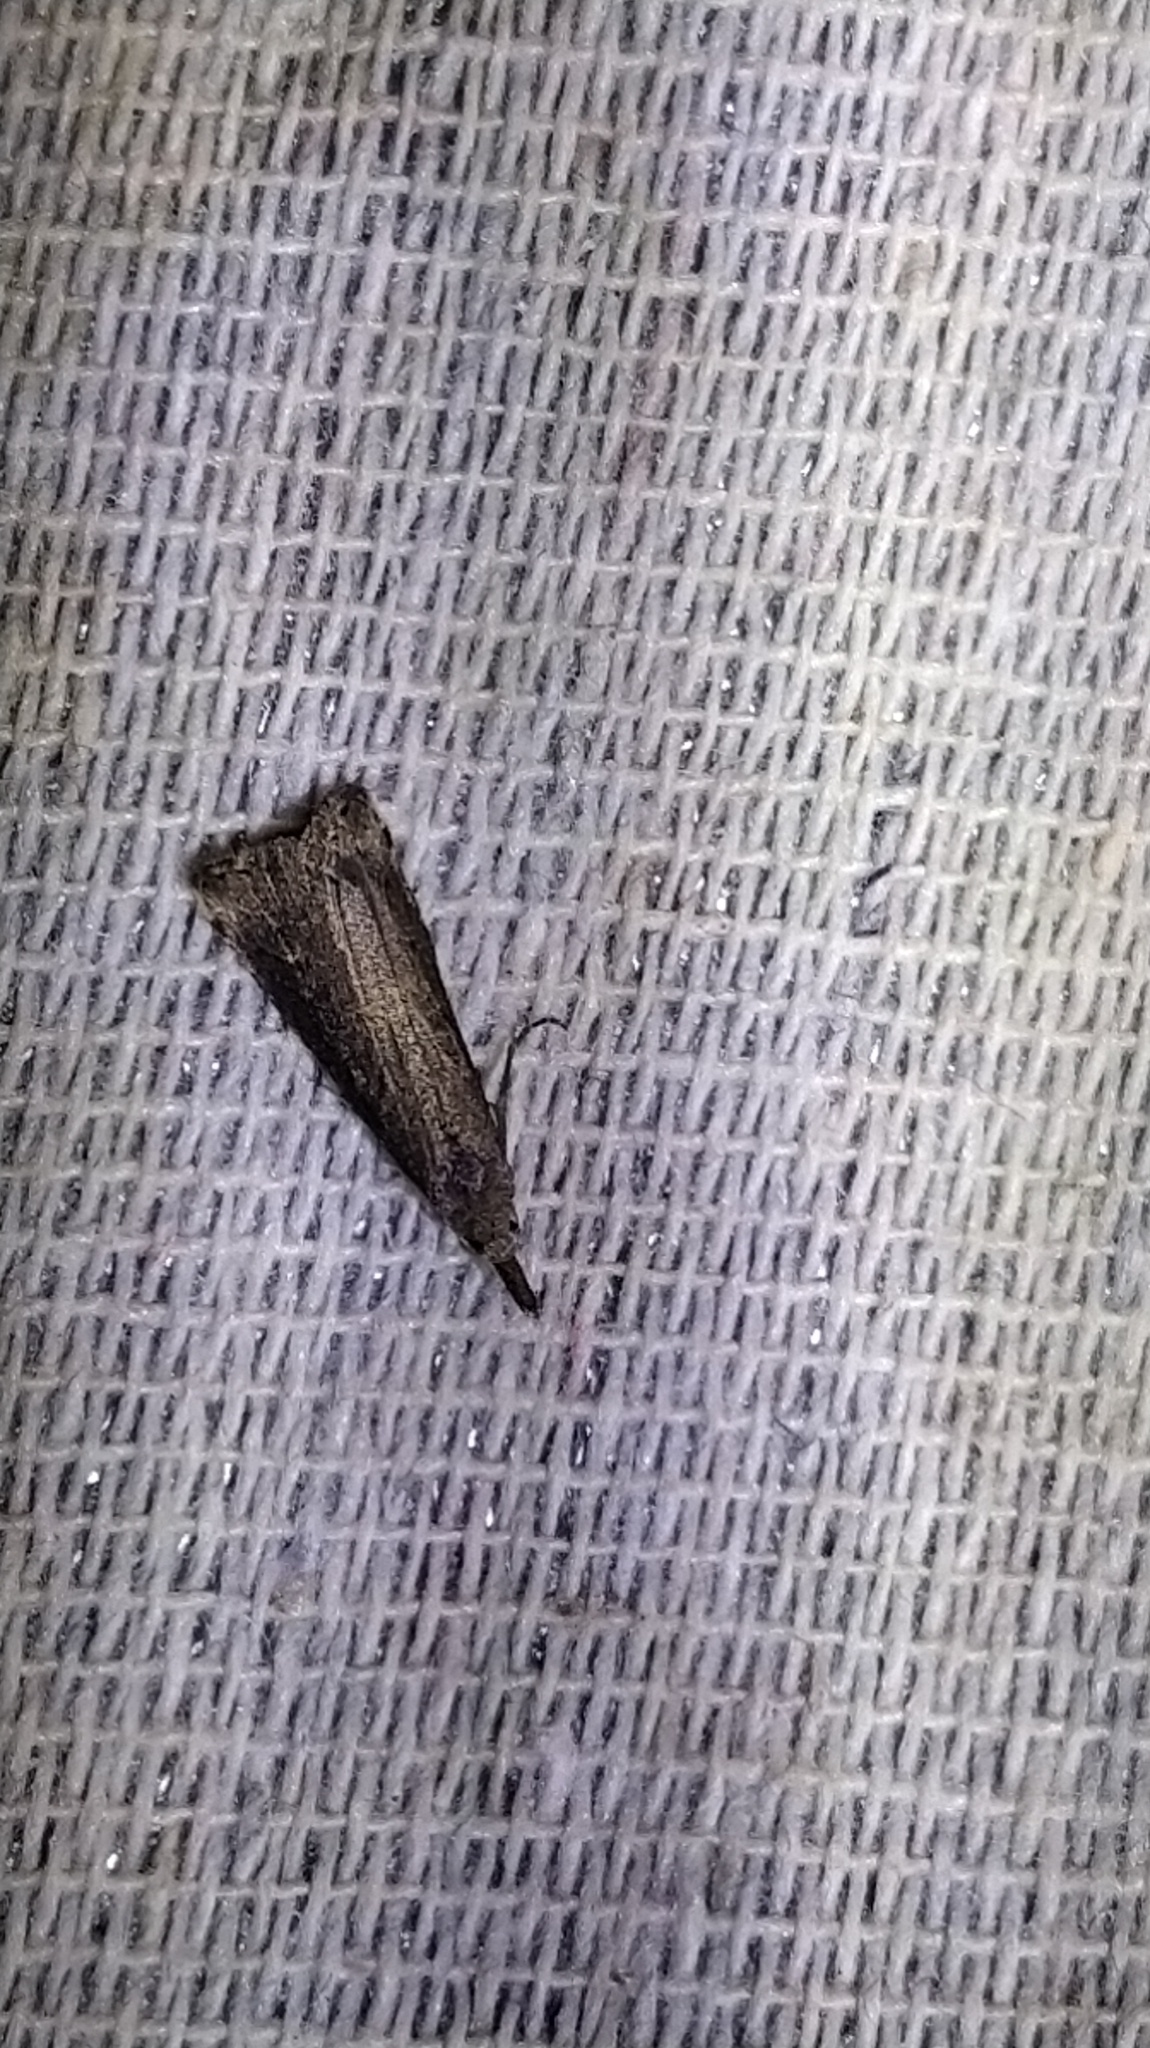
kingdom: Animalia
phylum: Arthropoda
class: Insecta
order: Lepidoptera
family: Erebidae
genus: Schrankia
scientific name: Schrankia costaestrigalis
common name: Pinion-streaked snout
